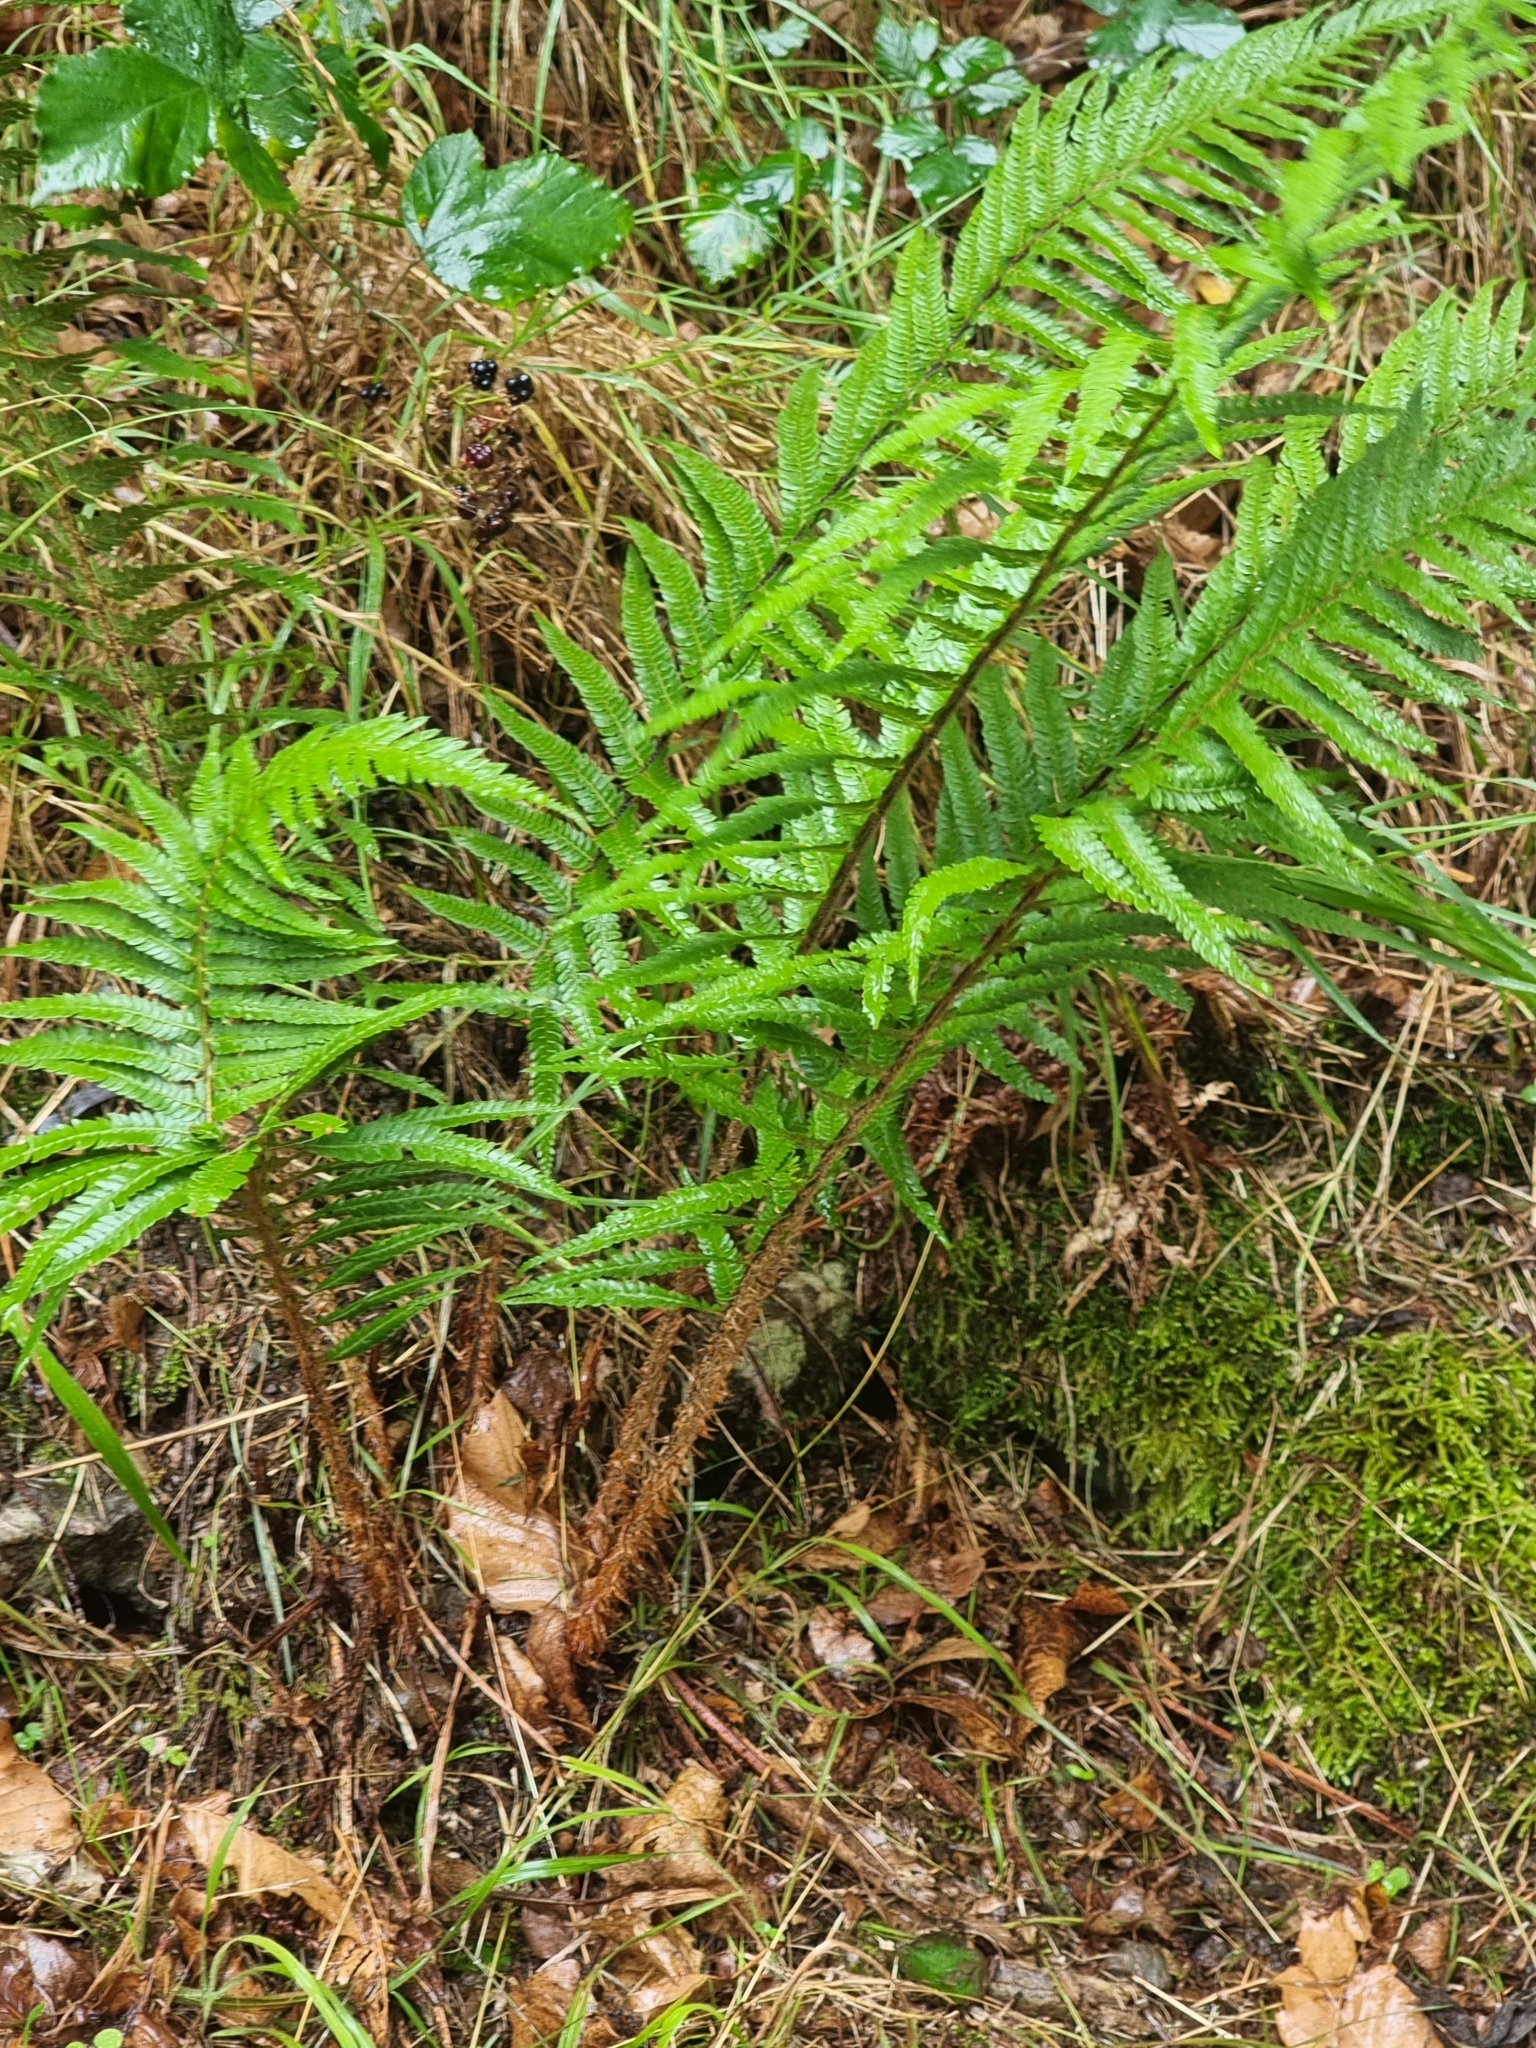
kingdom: Plantae
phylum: Tracheophyta
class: Polypodiopsida
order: Polypodiales
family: Dryopteridaceae
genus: Polystichum
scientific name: Polystichum setiferum
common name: Soft shield-fern
